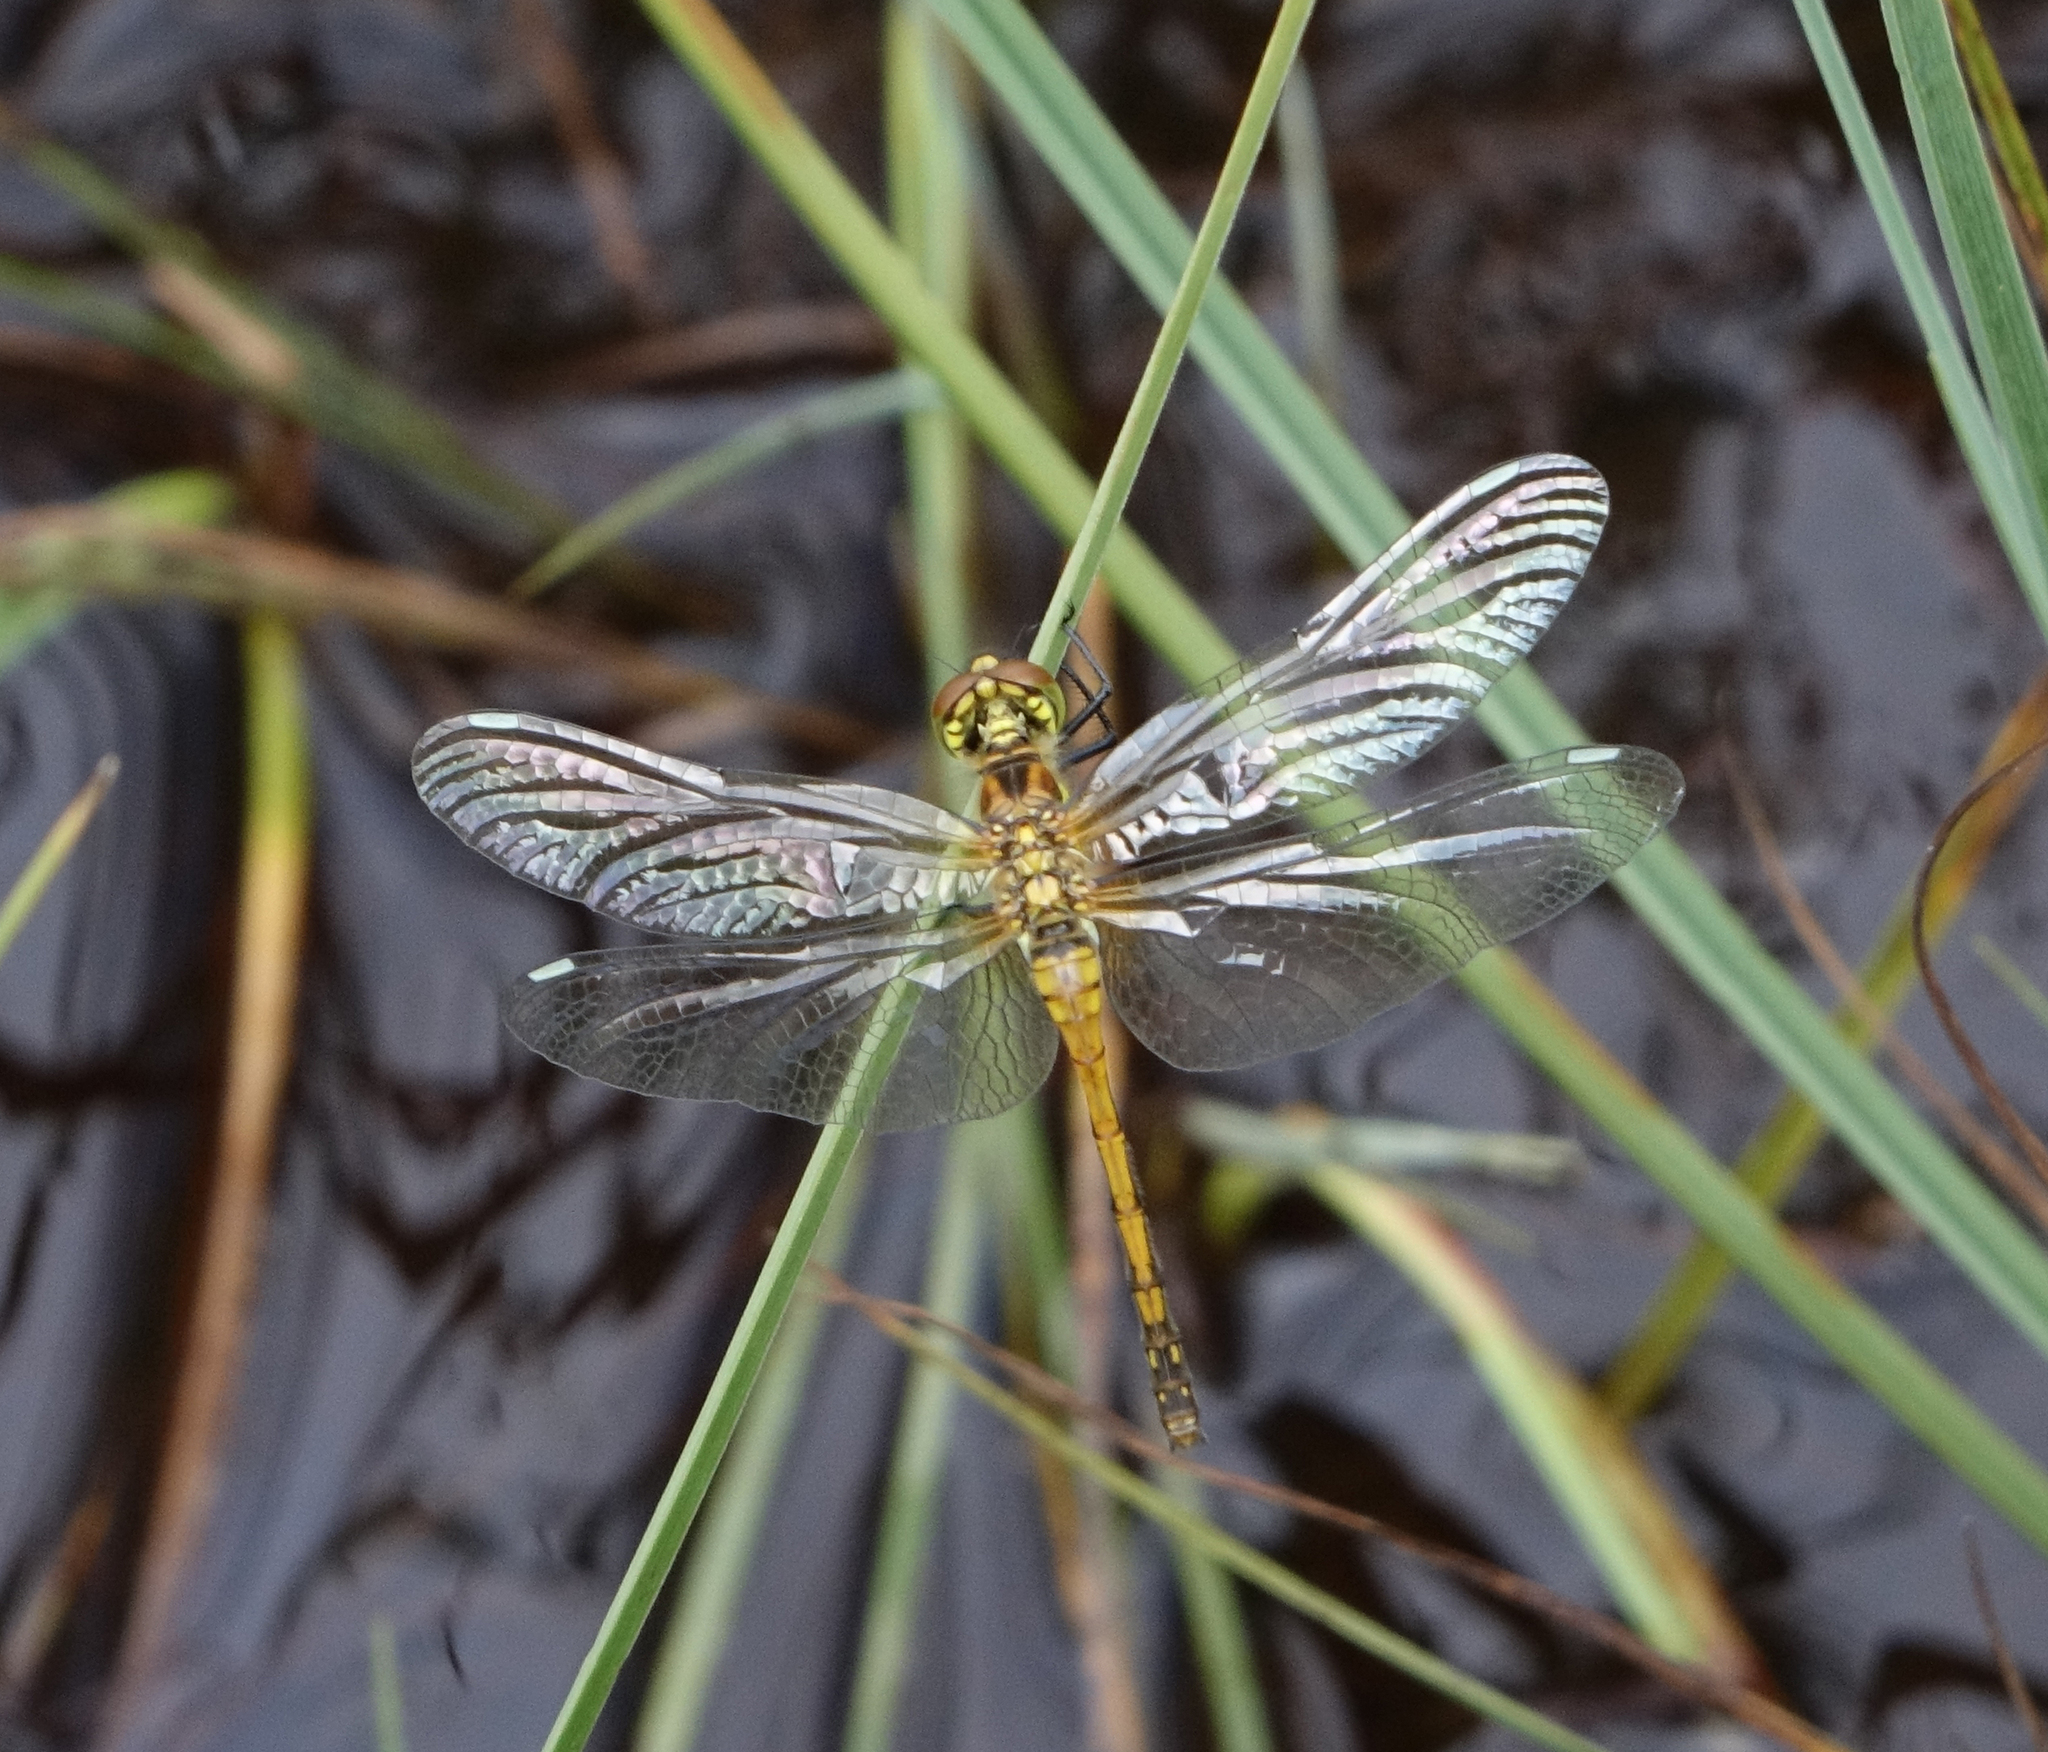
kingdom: Animalia
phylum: Arthropoda
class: Insecta
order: Odonata
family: Libellulidae
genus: Sympetrum
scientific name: Sympetrum danae
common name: Black darter
